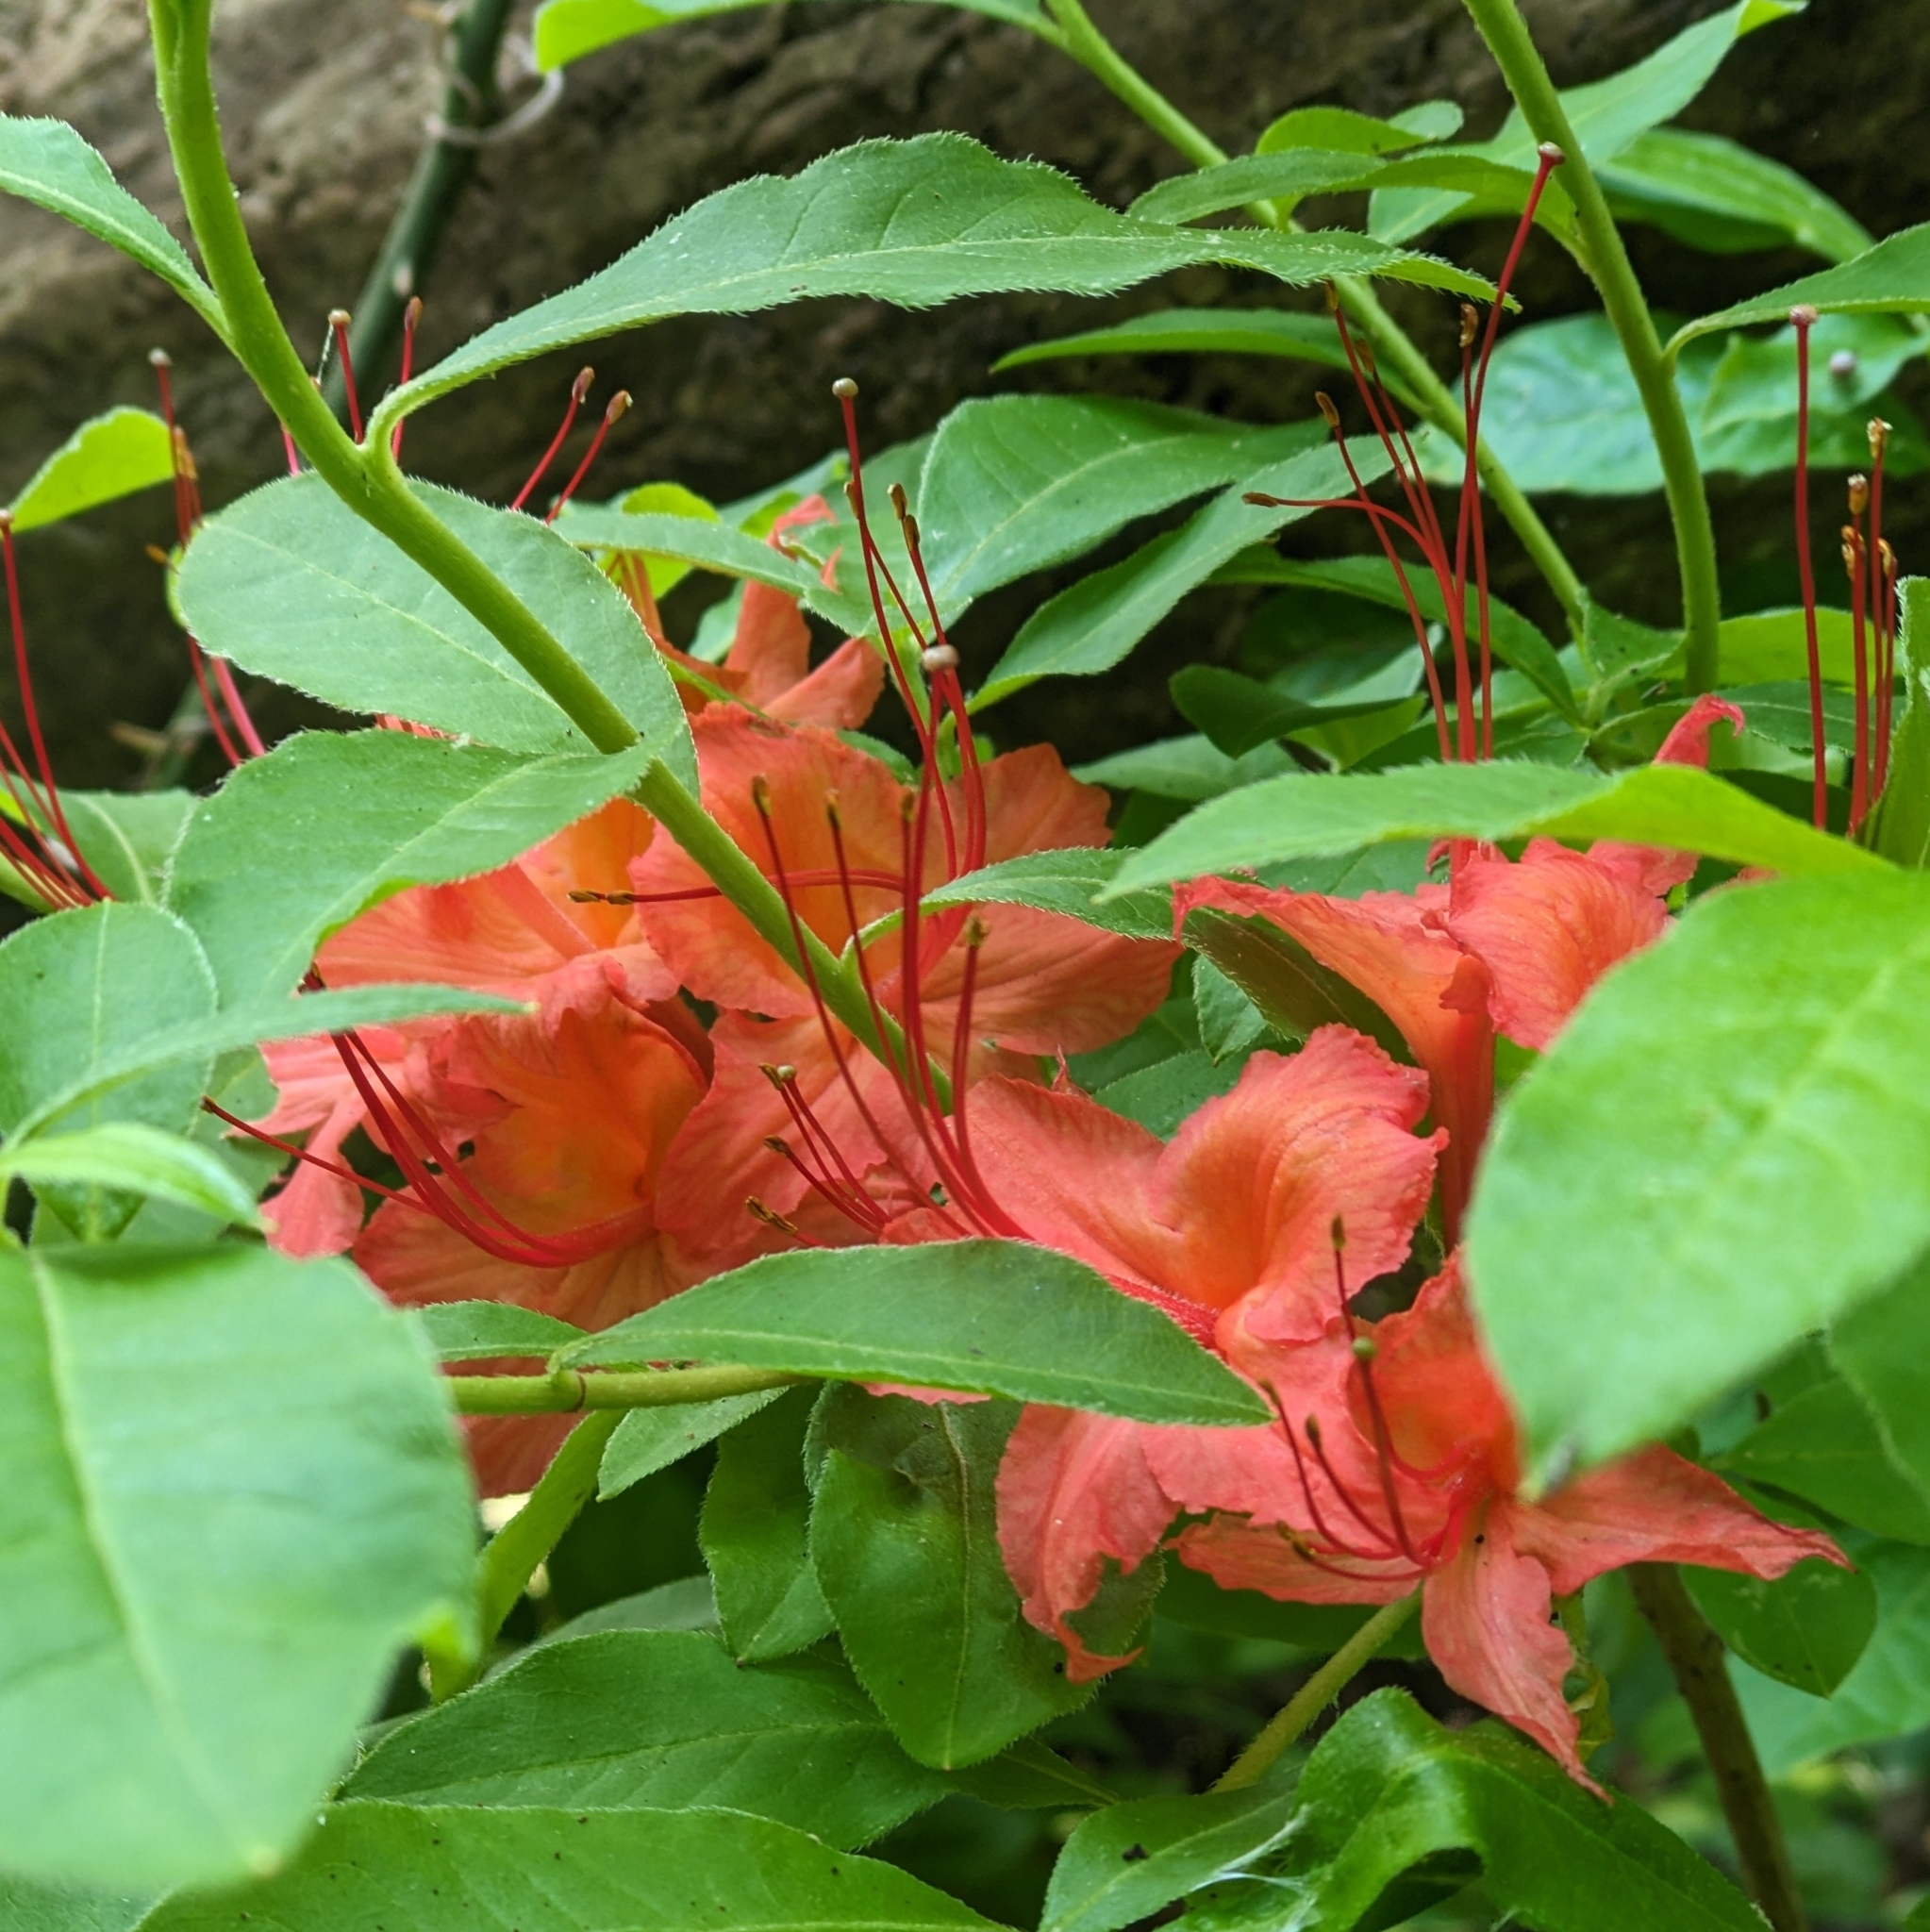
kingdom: Plantae
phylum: Tracheophyta
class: Magnoliopsida
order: Ericales
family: Ericaceae
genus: Rhododendron
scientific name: Rhododendron calendulaceum
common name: Flame azalea
